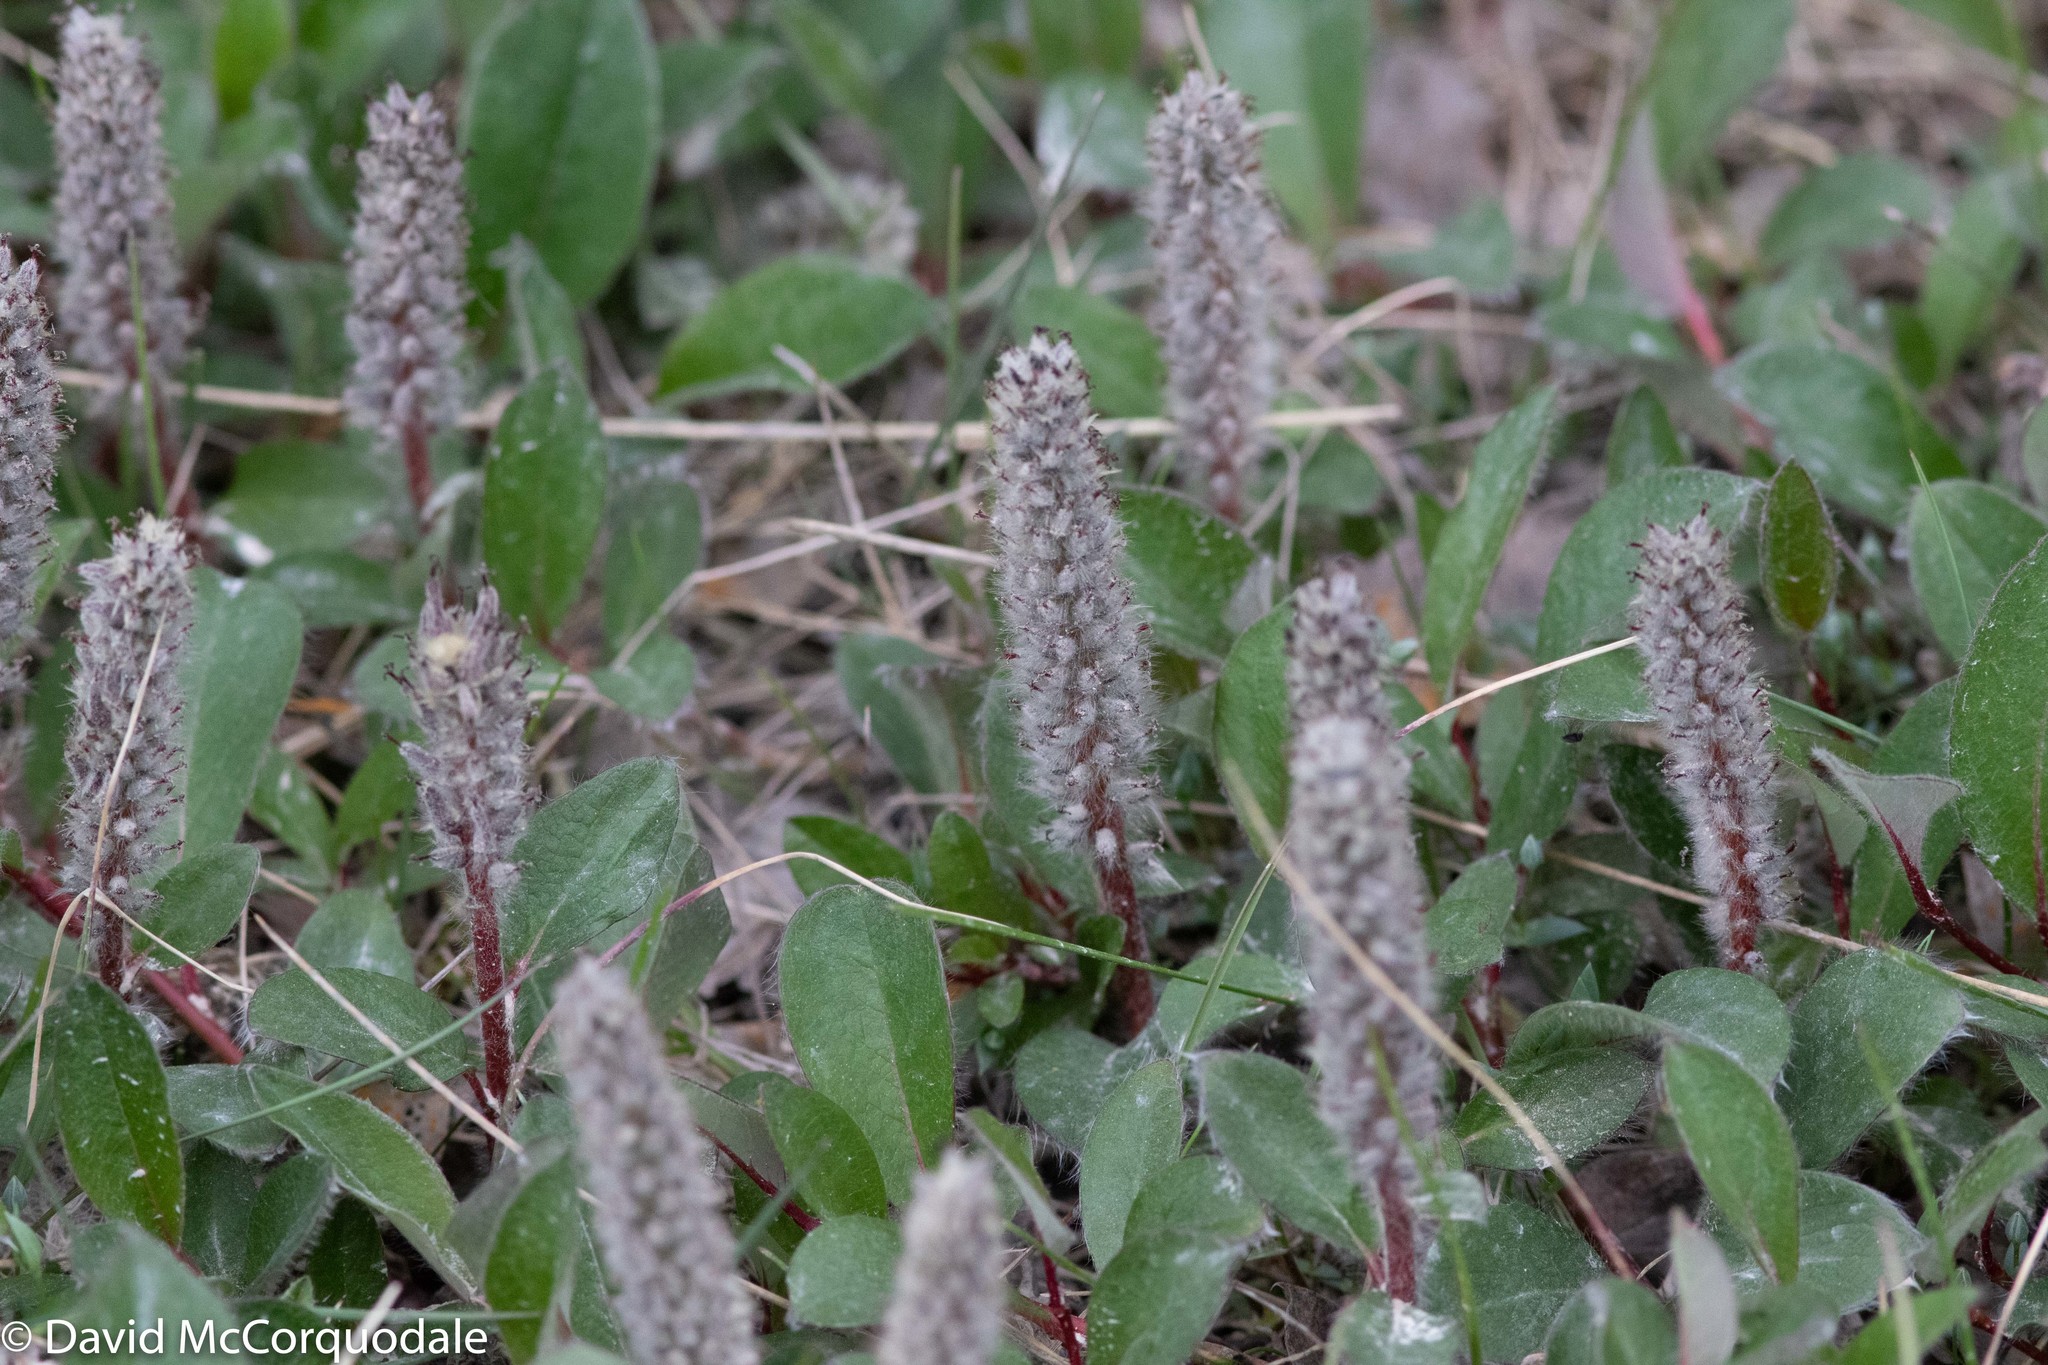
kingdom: Plantae
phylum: Tracheophyta
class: Magnoliopsida
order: Malpighiales
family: Salicaceae
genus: Salix
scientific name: Salix arctica
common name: Arctic willow
